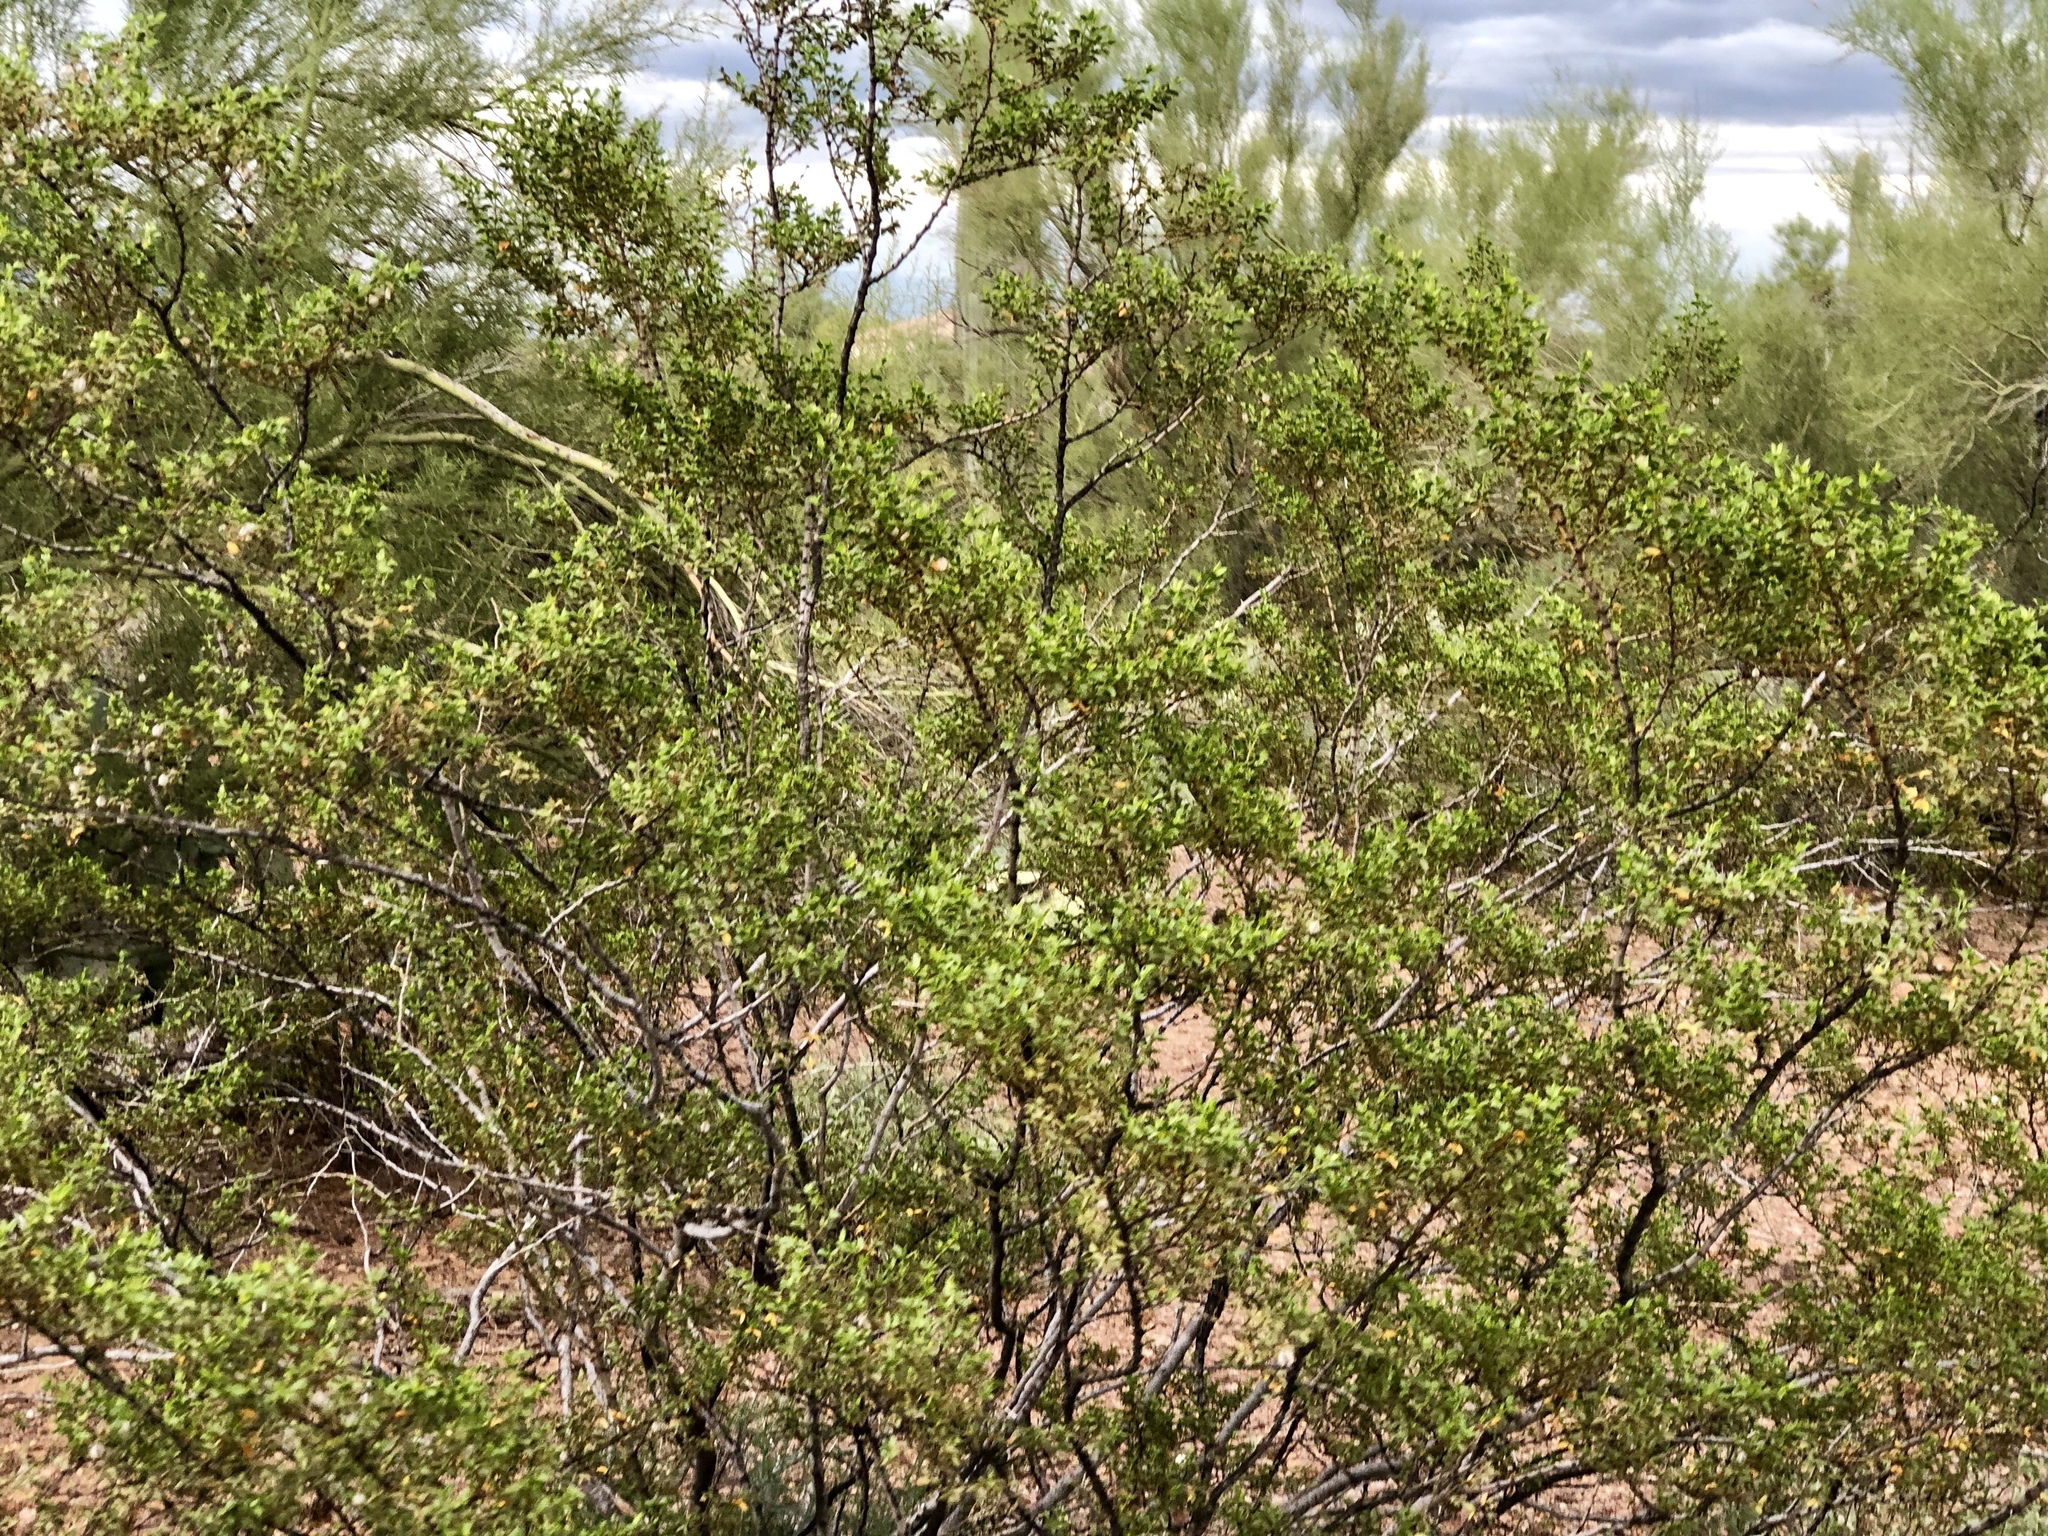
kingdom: Plantae
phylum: Tracheophyta
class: Magnoliopsida
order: Zygophyllales
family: Zygophyllaceae
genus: Larrea
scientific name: Larrea tridentata
